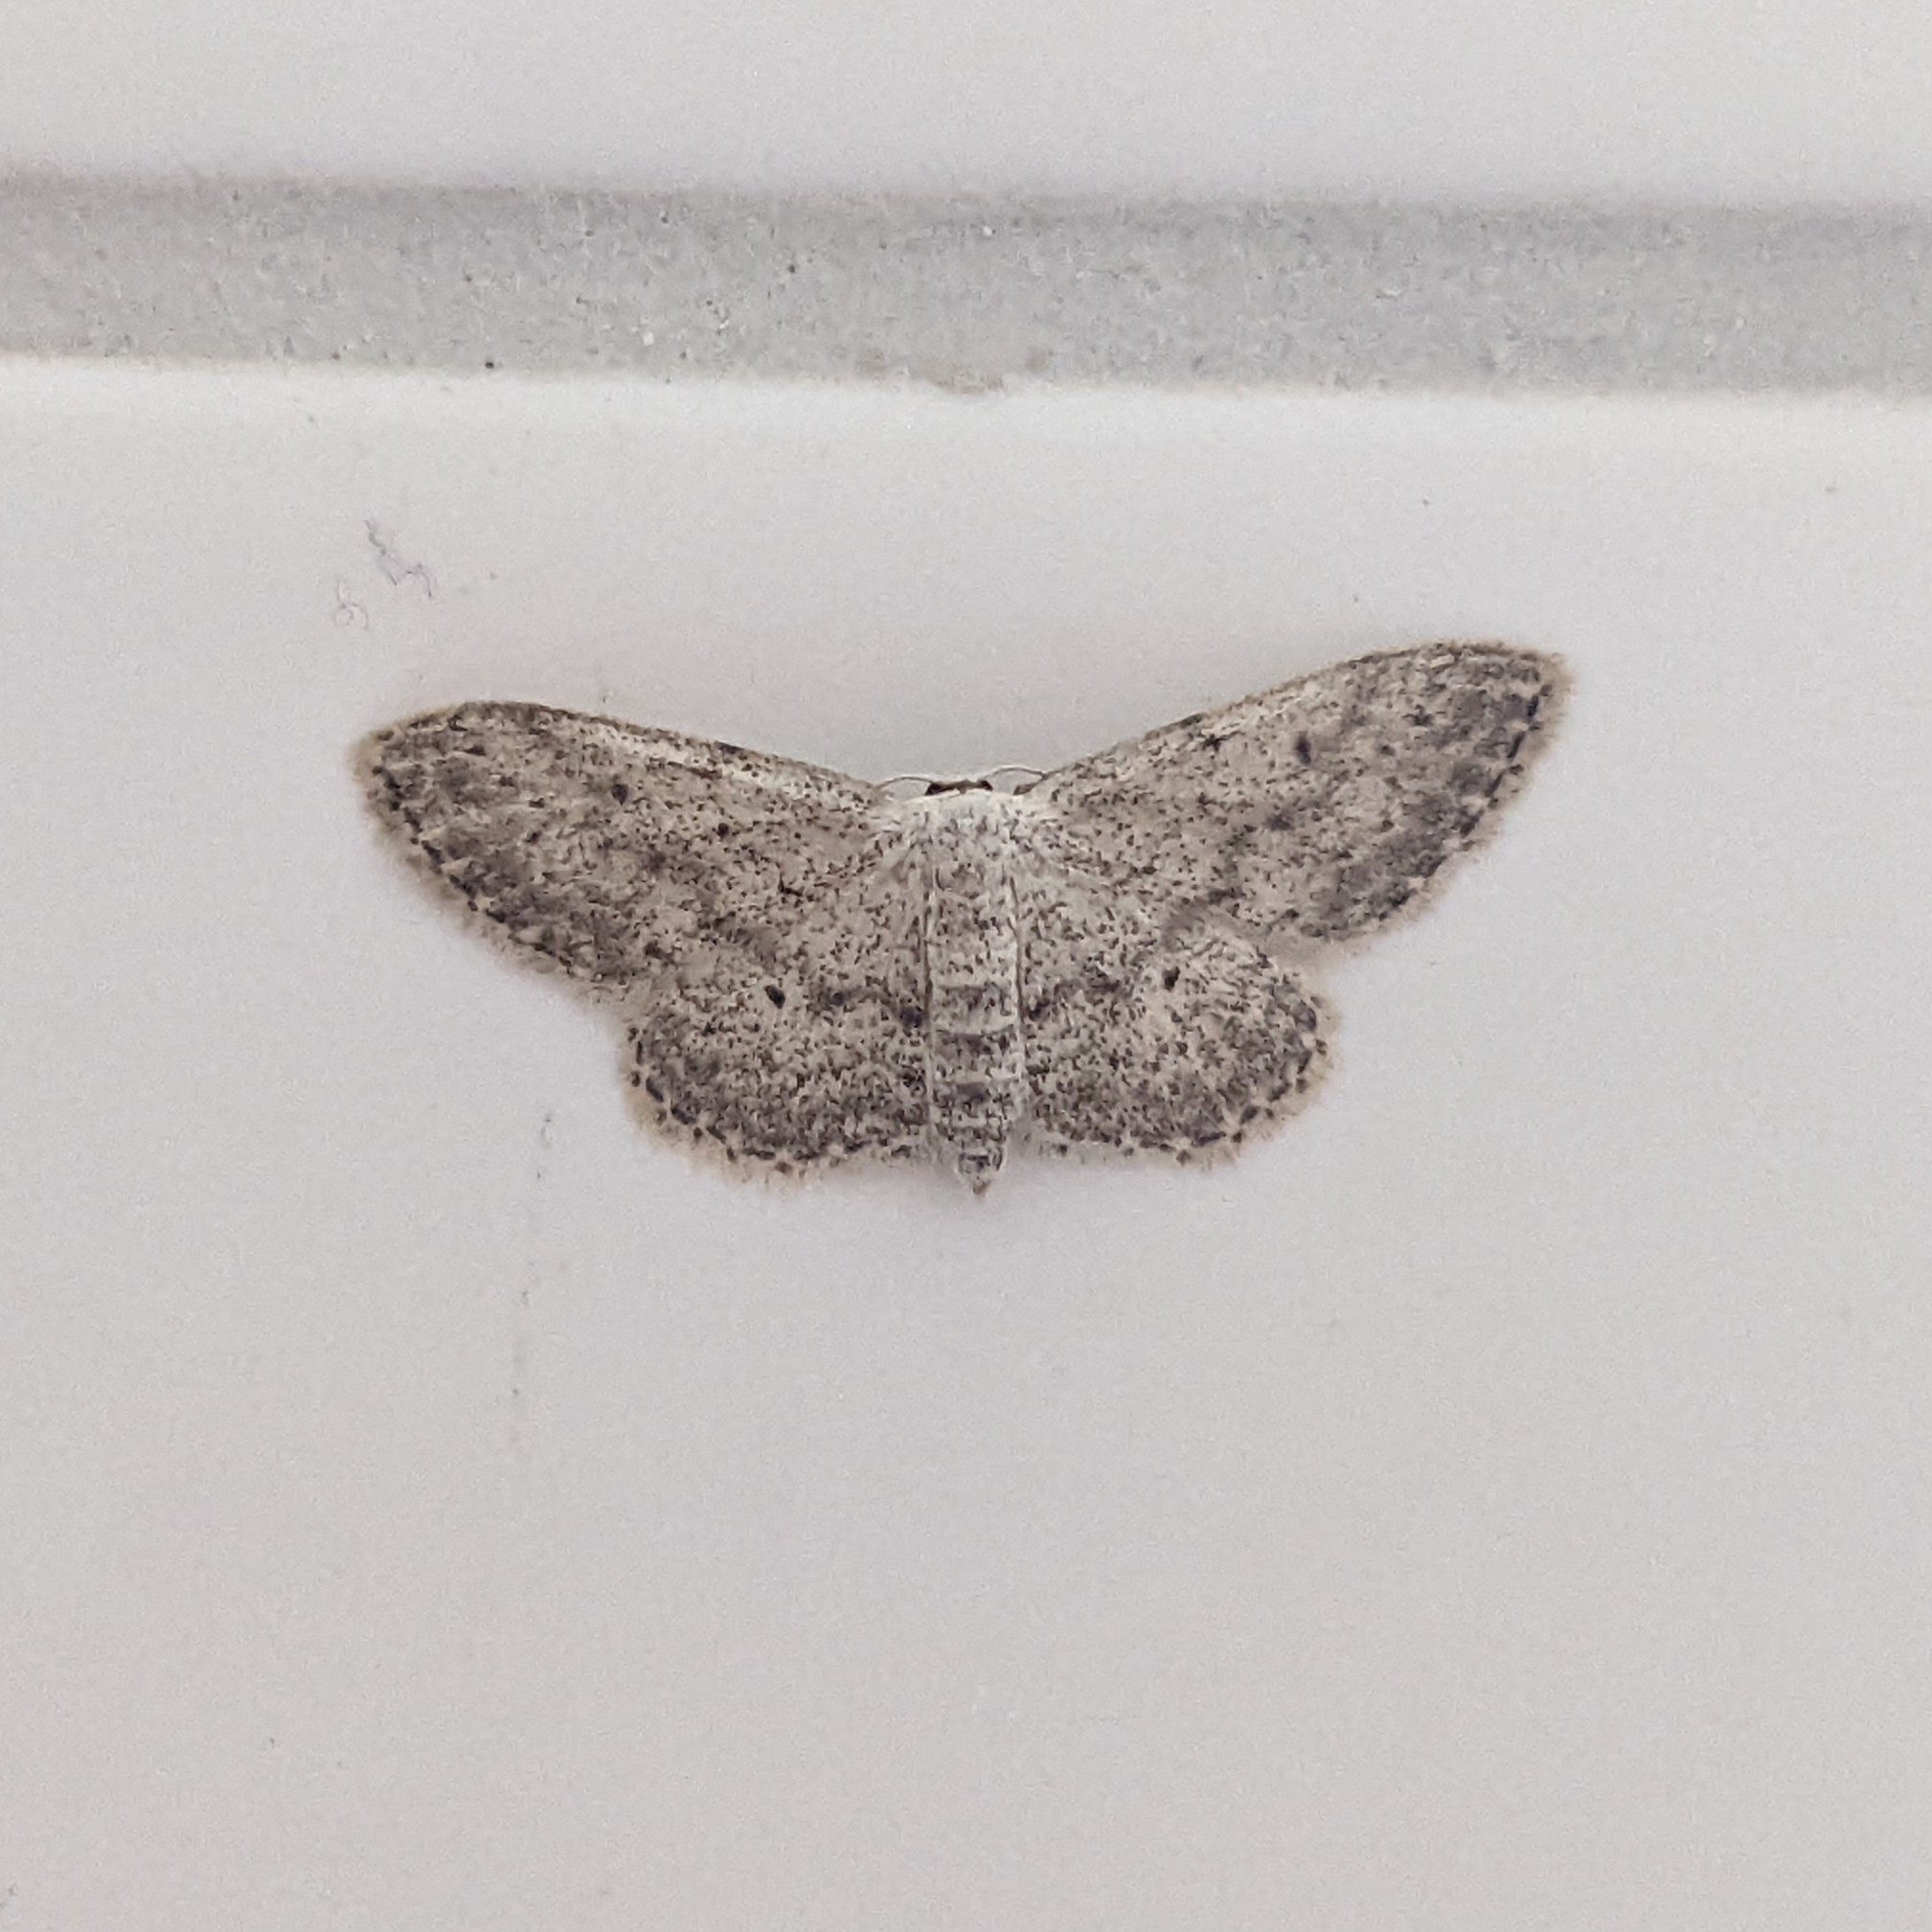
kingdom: Animalia
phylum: Arthropoda
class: Insecta
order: Lepidoptera
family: Geometridae
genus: Idaea
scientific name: Idaea seriata
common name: Small dusty wave
